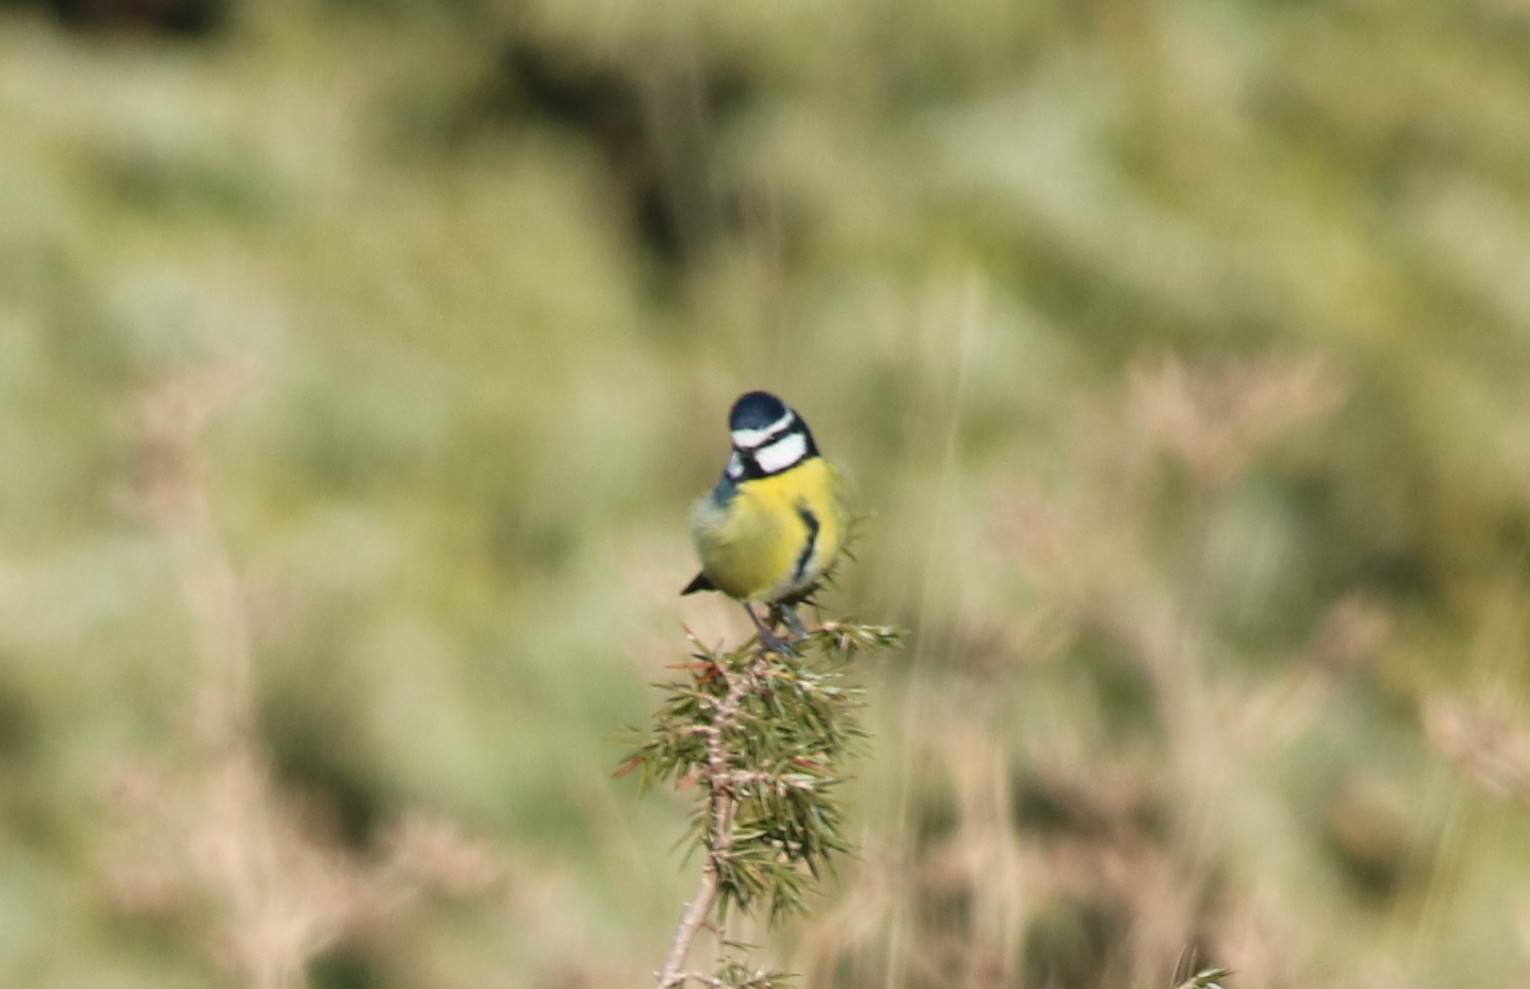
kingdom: Animalia
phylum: Chordata
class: Aves
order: Passeriformes
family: Paridae
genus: Cyanistes
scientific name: Cyanistes teneriffae
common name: African blue tit
